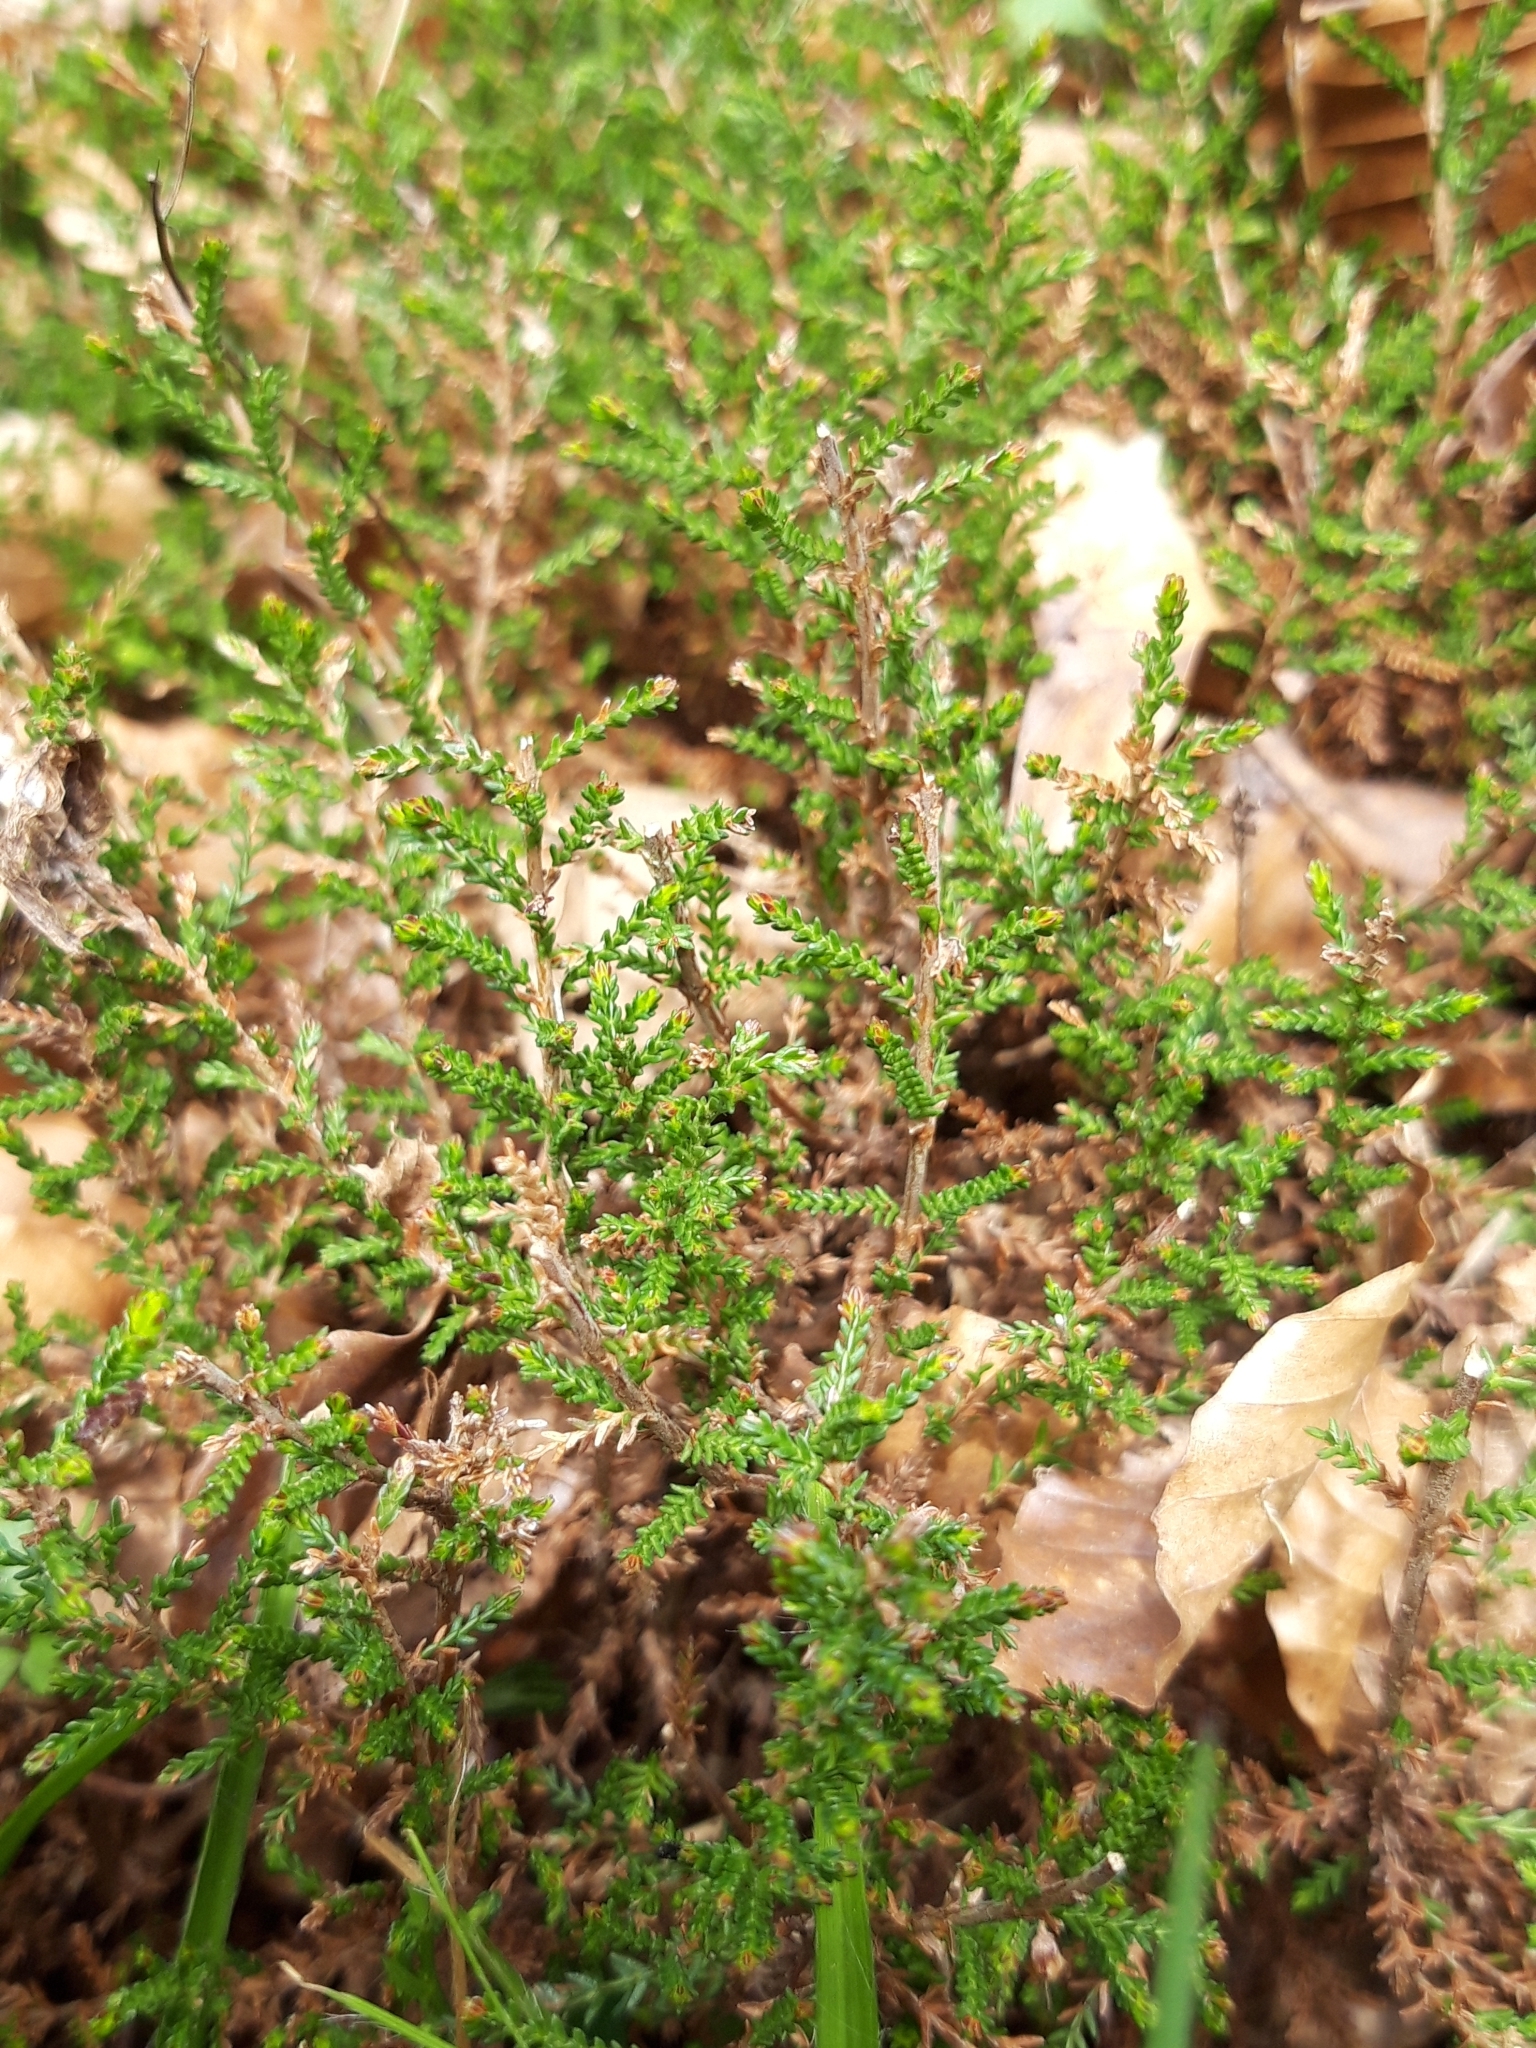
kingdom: Plantae
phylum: Tracheophyta
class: Magnoliopsida
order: Ericales
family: Ericaceae
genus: Calluna
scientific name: Calluna vulgaris
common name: Heather
